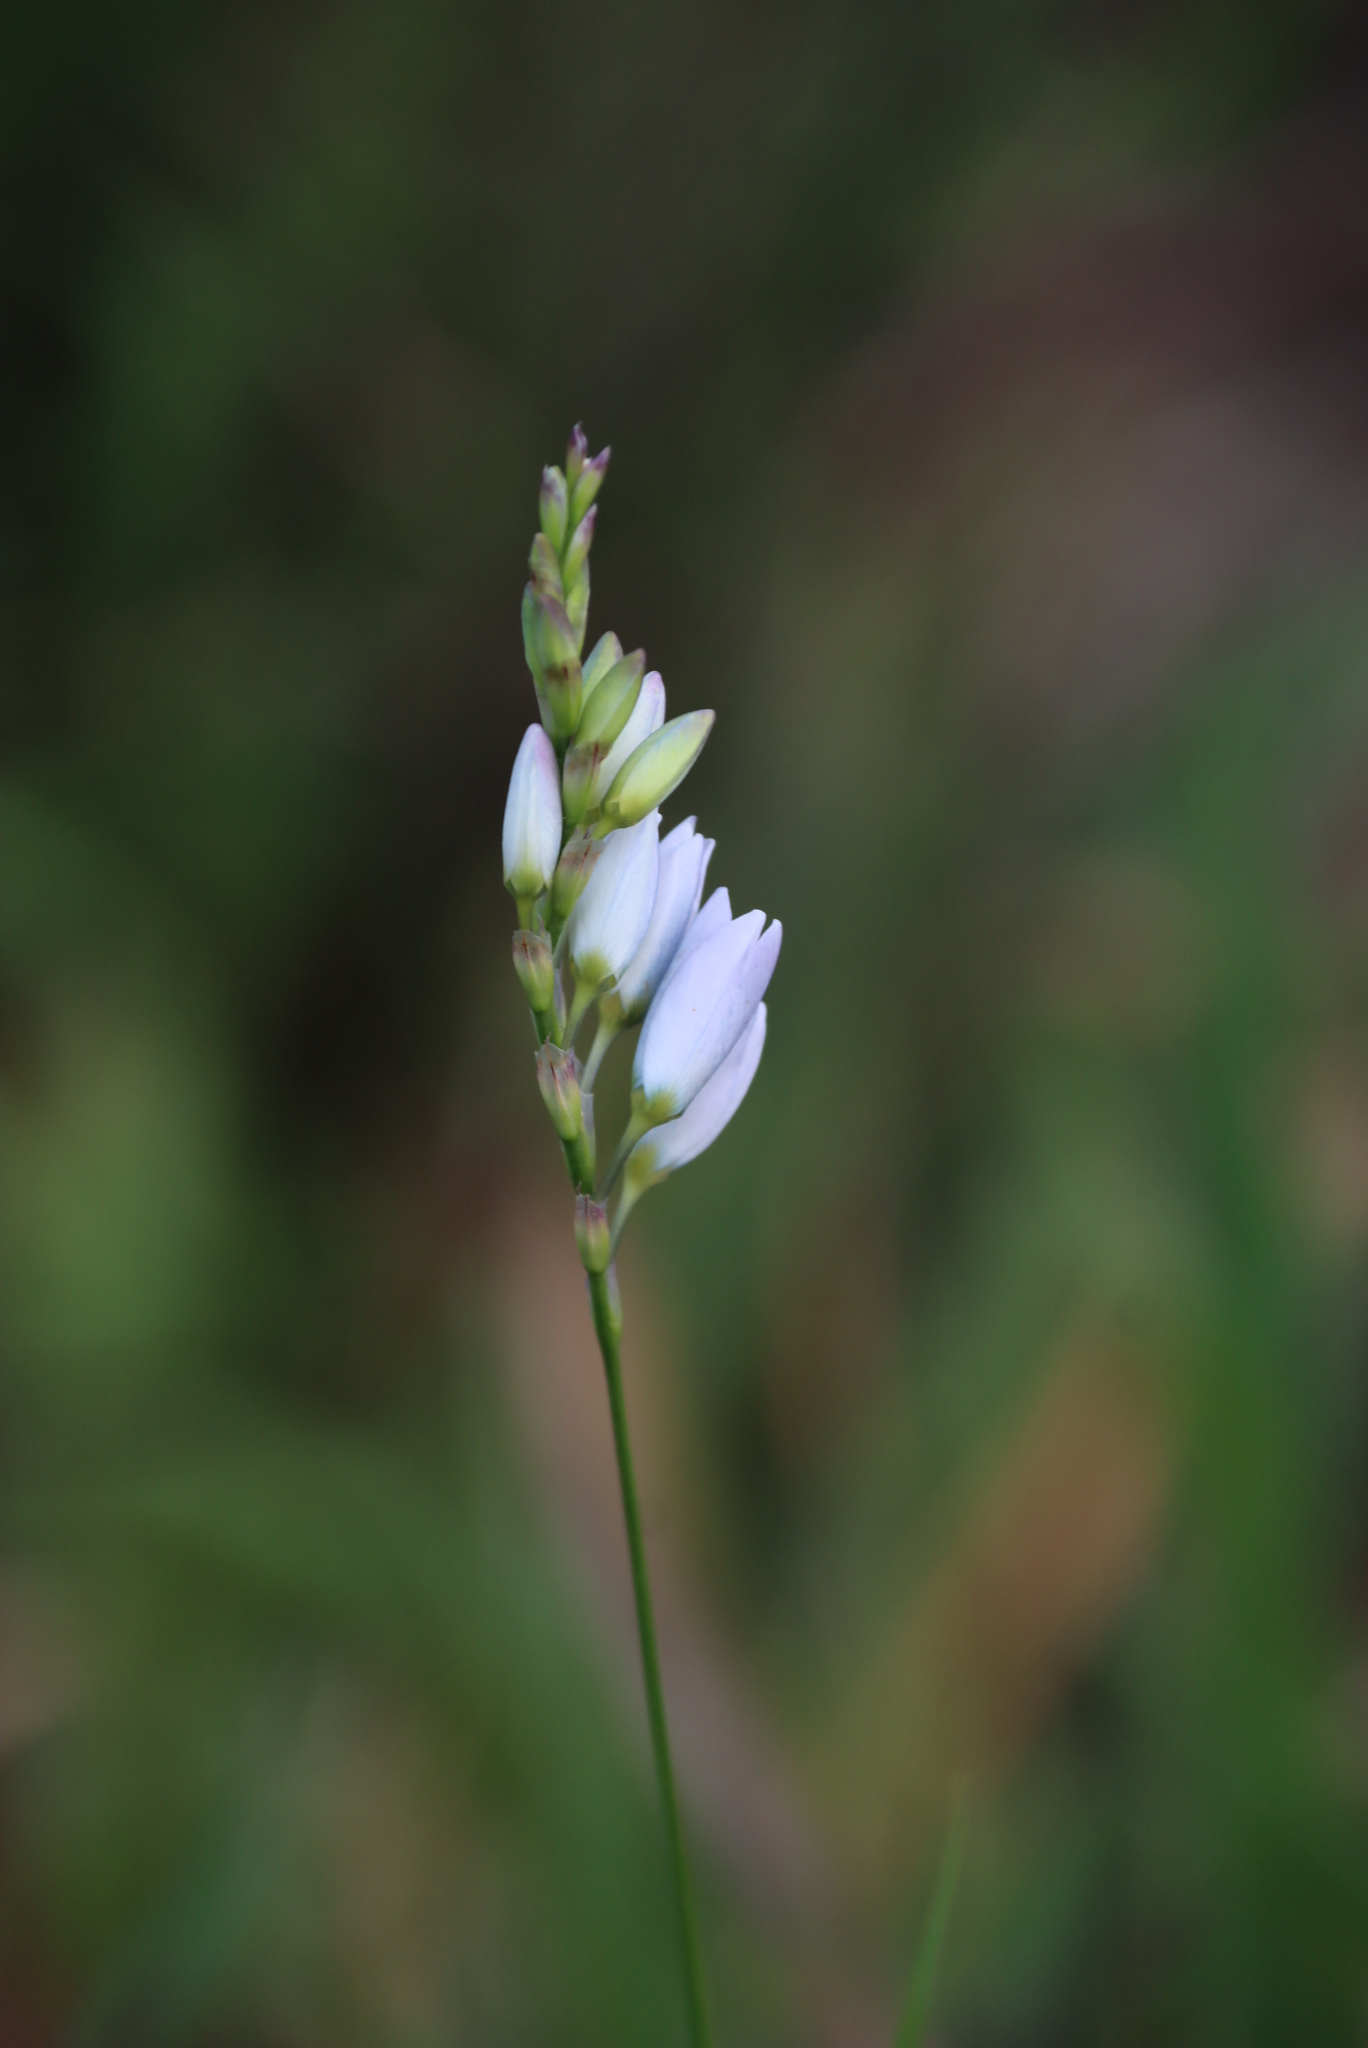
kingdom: Plantae
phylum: Tracheophyta
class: Liliopsida
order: Asparagales
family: Iridaceae
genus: Ixia
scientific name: Ixia polystachya
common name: White-and-yellow-flower cornlily
